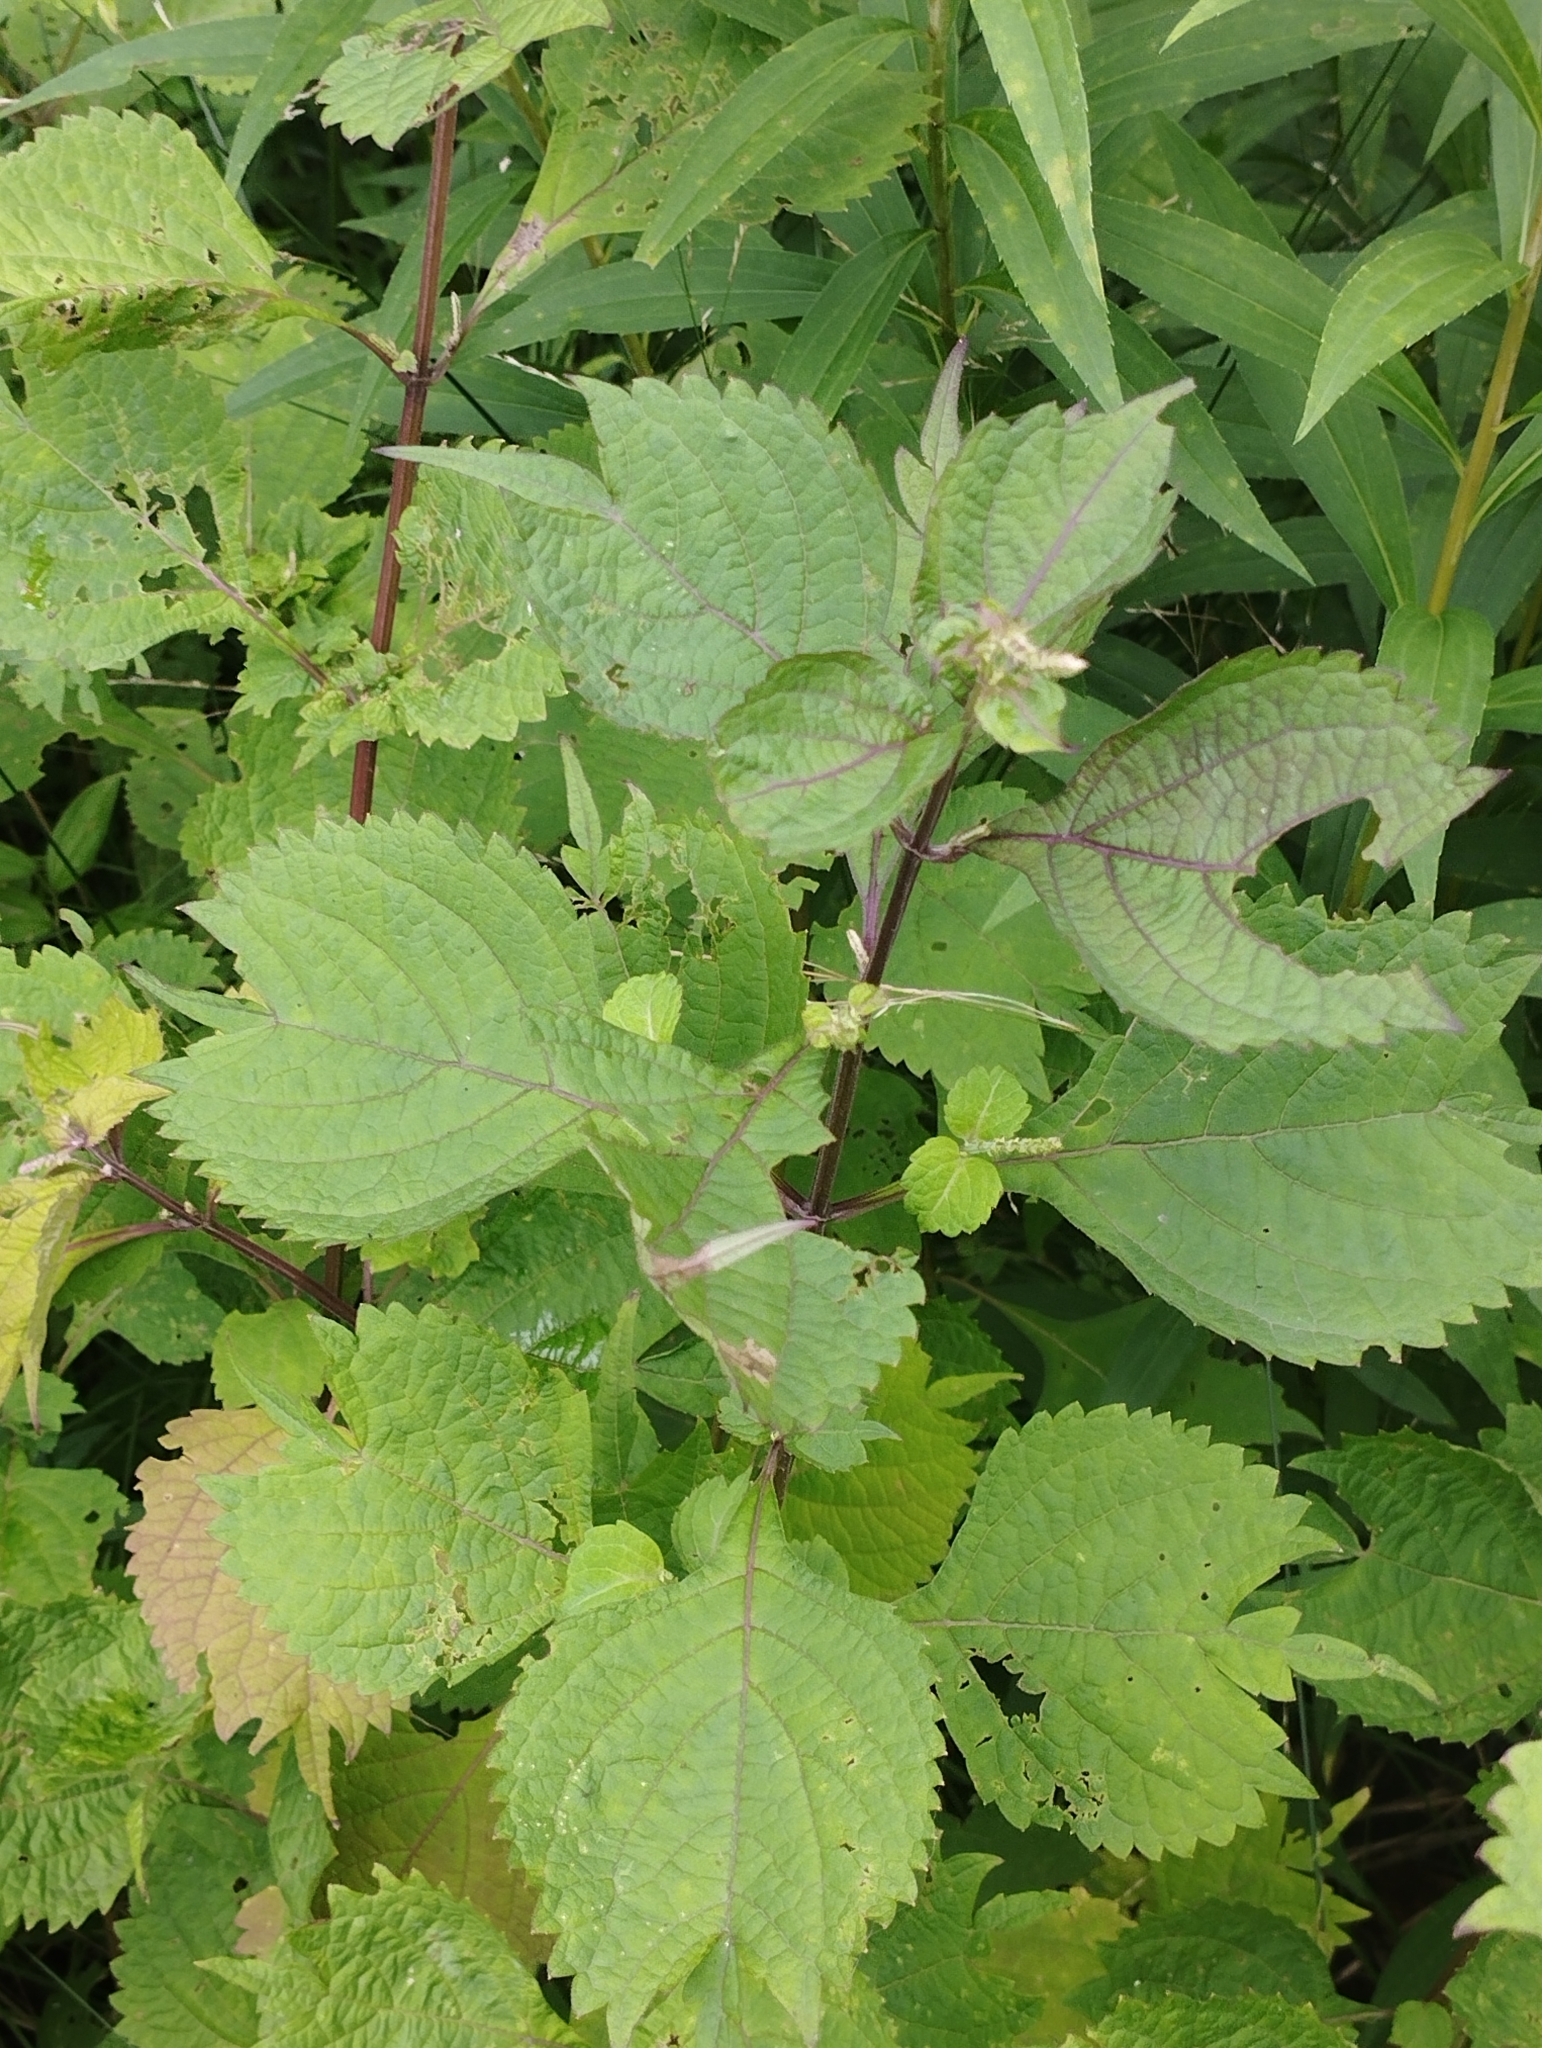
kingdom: Plantae
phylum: Tracheophyta
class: Magnoliopsida
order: Lamiales
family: Lamiaceae
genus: Isodon
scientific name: Isodon excisus
